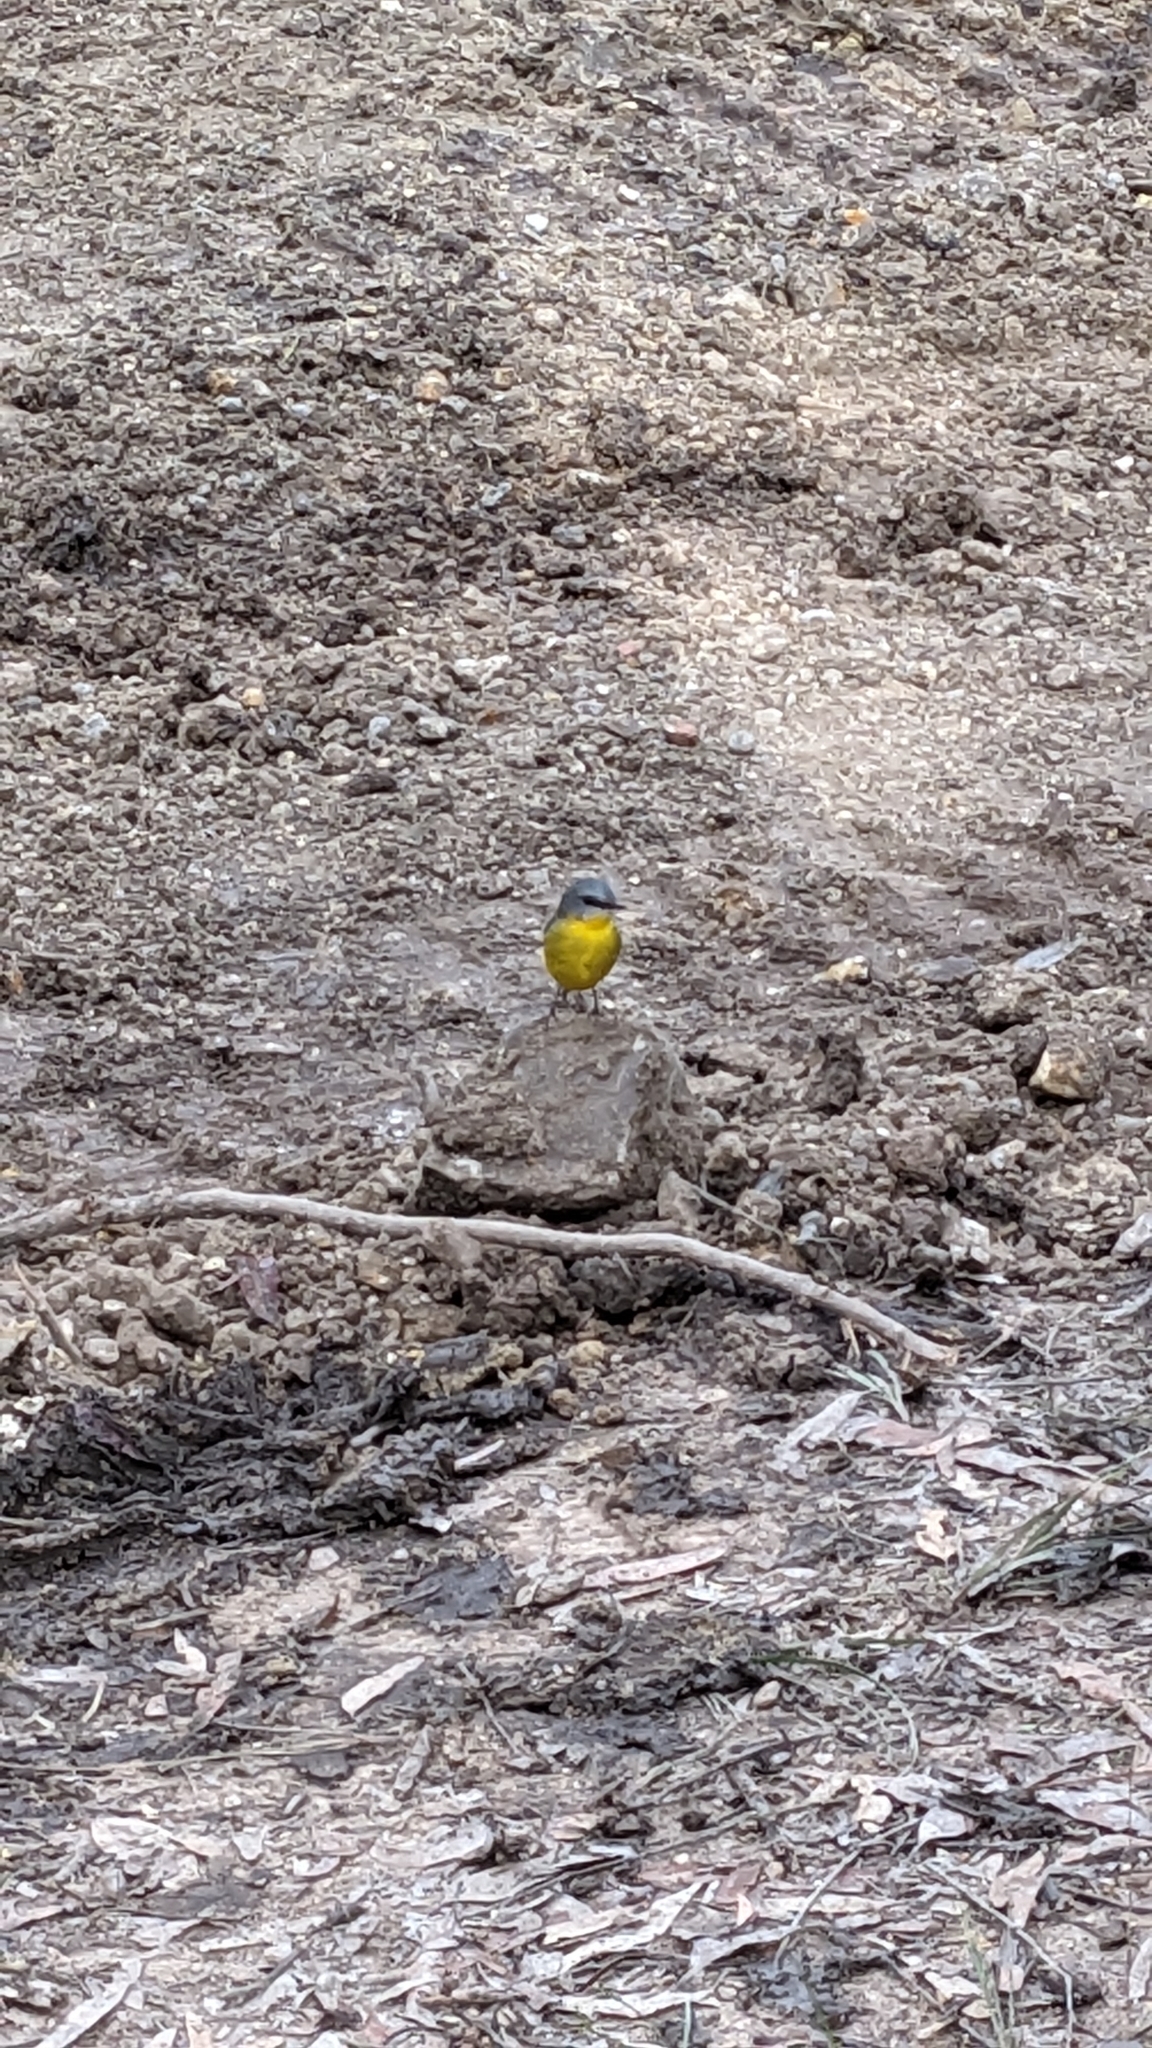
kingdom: Animalia
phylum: Chordata
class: Aves
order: Passeriformes
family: Petroicidae
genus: Eopsaltria
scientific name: Eopsaltria australis
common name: Eastern yellow robin
